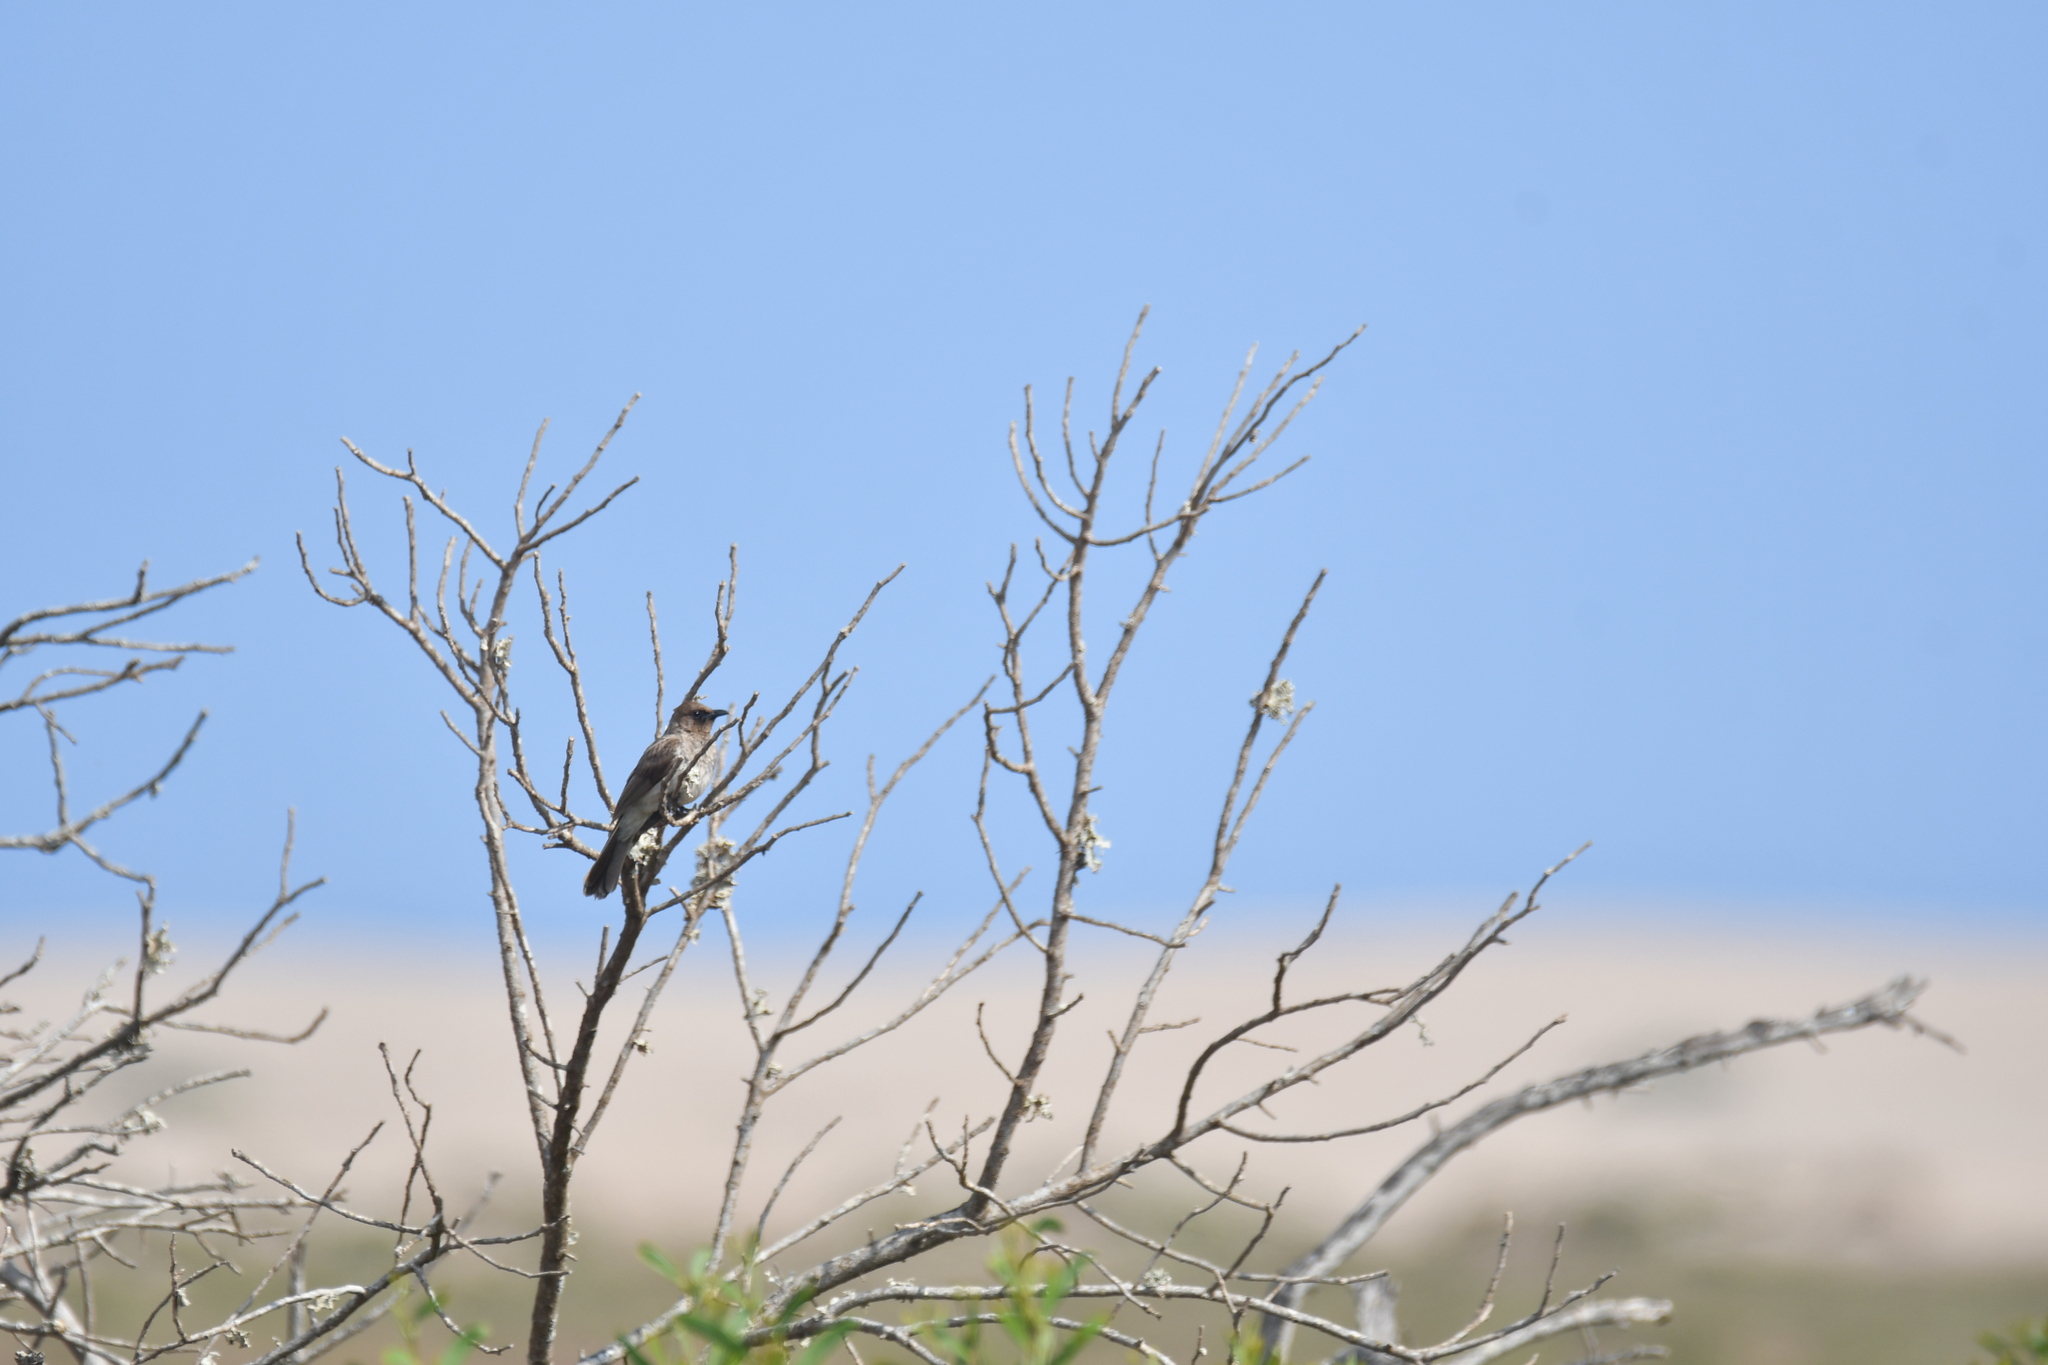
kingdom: Animalia
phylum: Chordata
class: Aves
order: Passeriformes
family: Pycnonotidae
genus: Pycnonotus
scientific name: Pycnonotus barbatus
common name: Common bulbul
